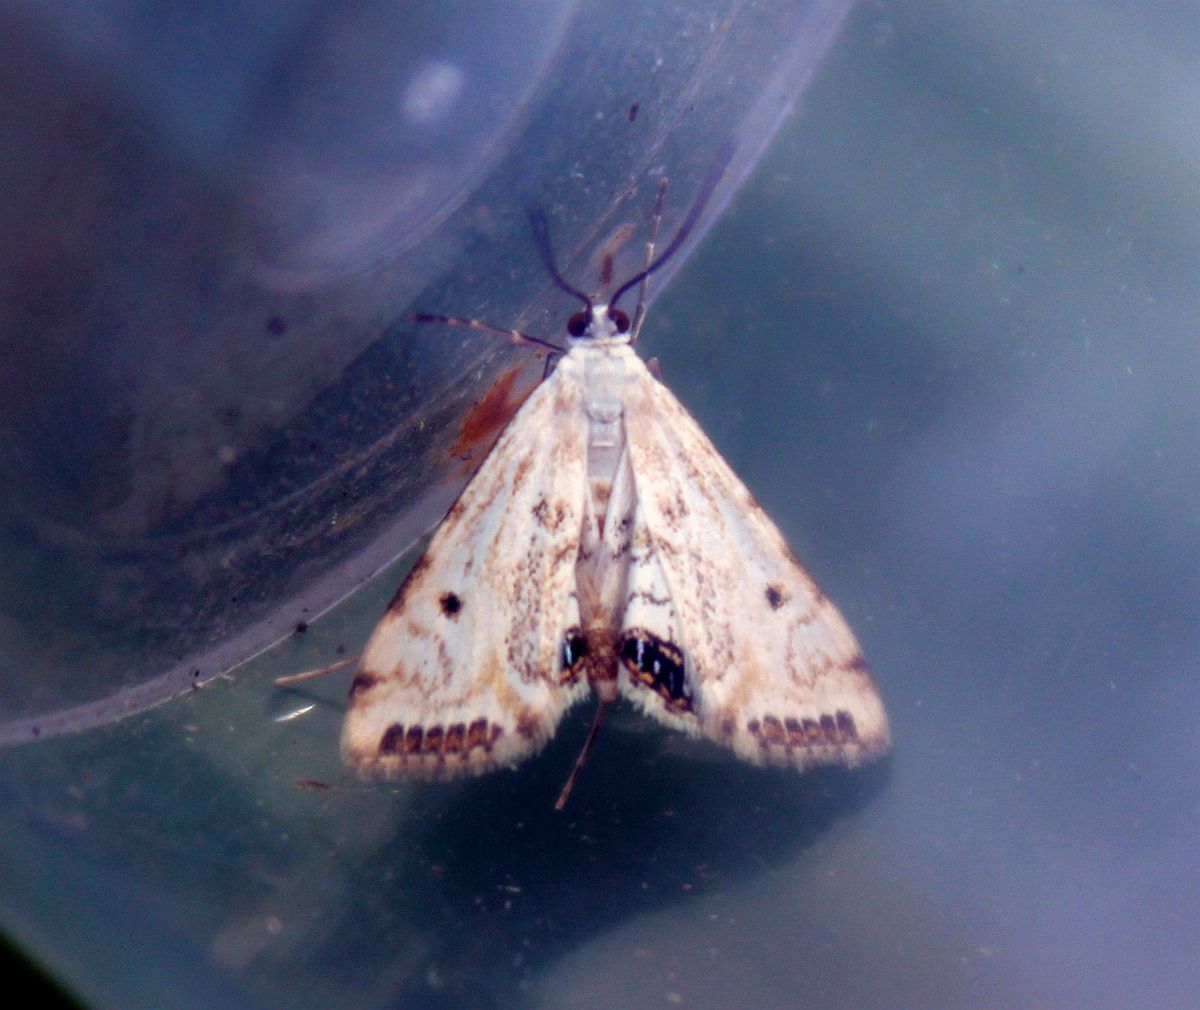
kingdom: Animalia
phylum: Arthropoda
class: Insecta
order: Lepidoptera
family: Crambidae
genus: Cataclysta
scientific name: Cataclysta lemnata
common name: Small china-mark
